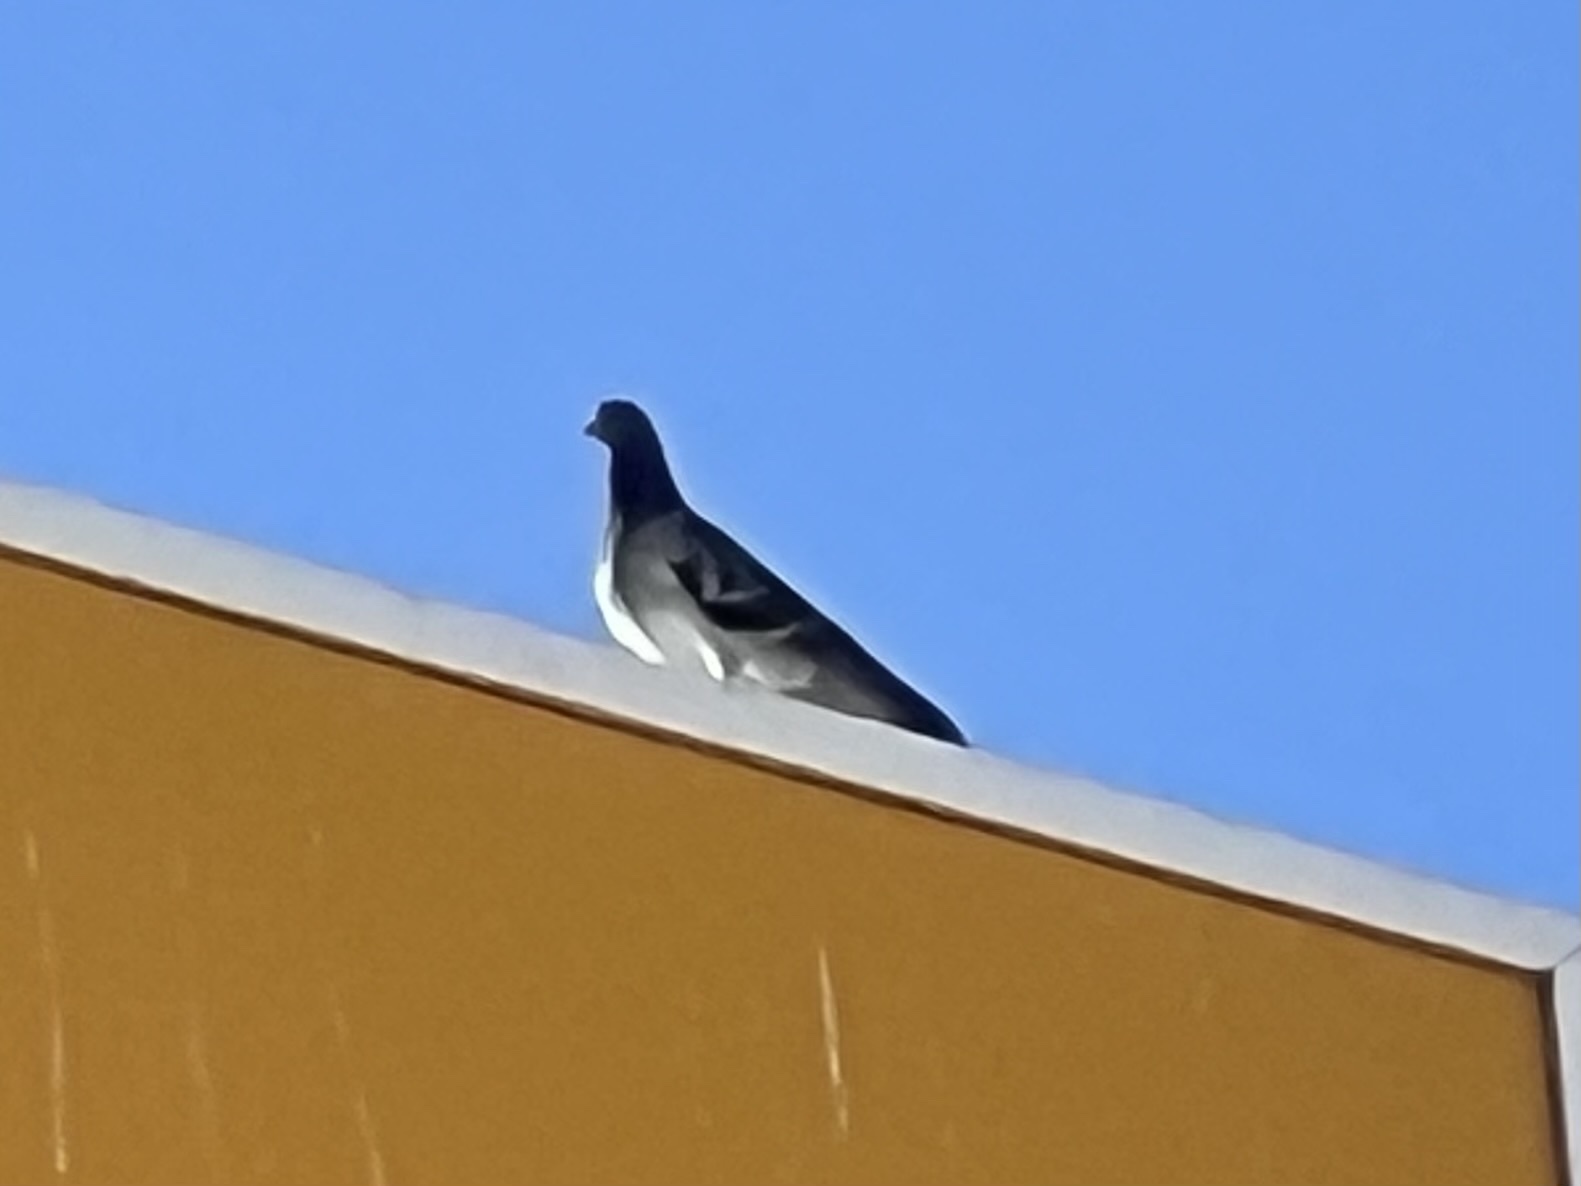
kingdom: Animalia
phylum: Chordata
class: Aves
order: Columbiformes
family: Columbidae
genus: Columba
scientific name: Columba livia
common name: Rock pigeon
